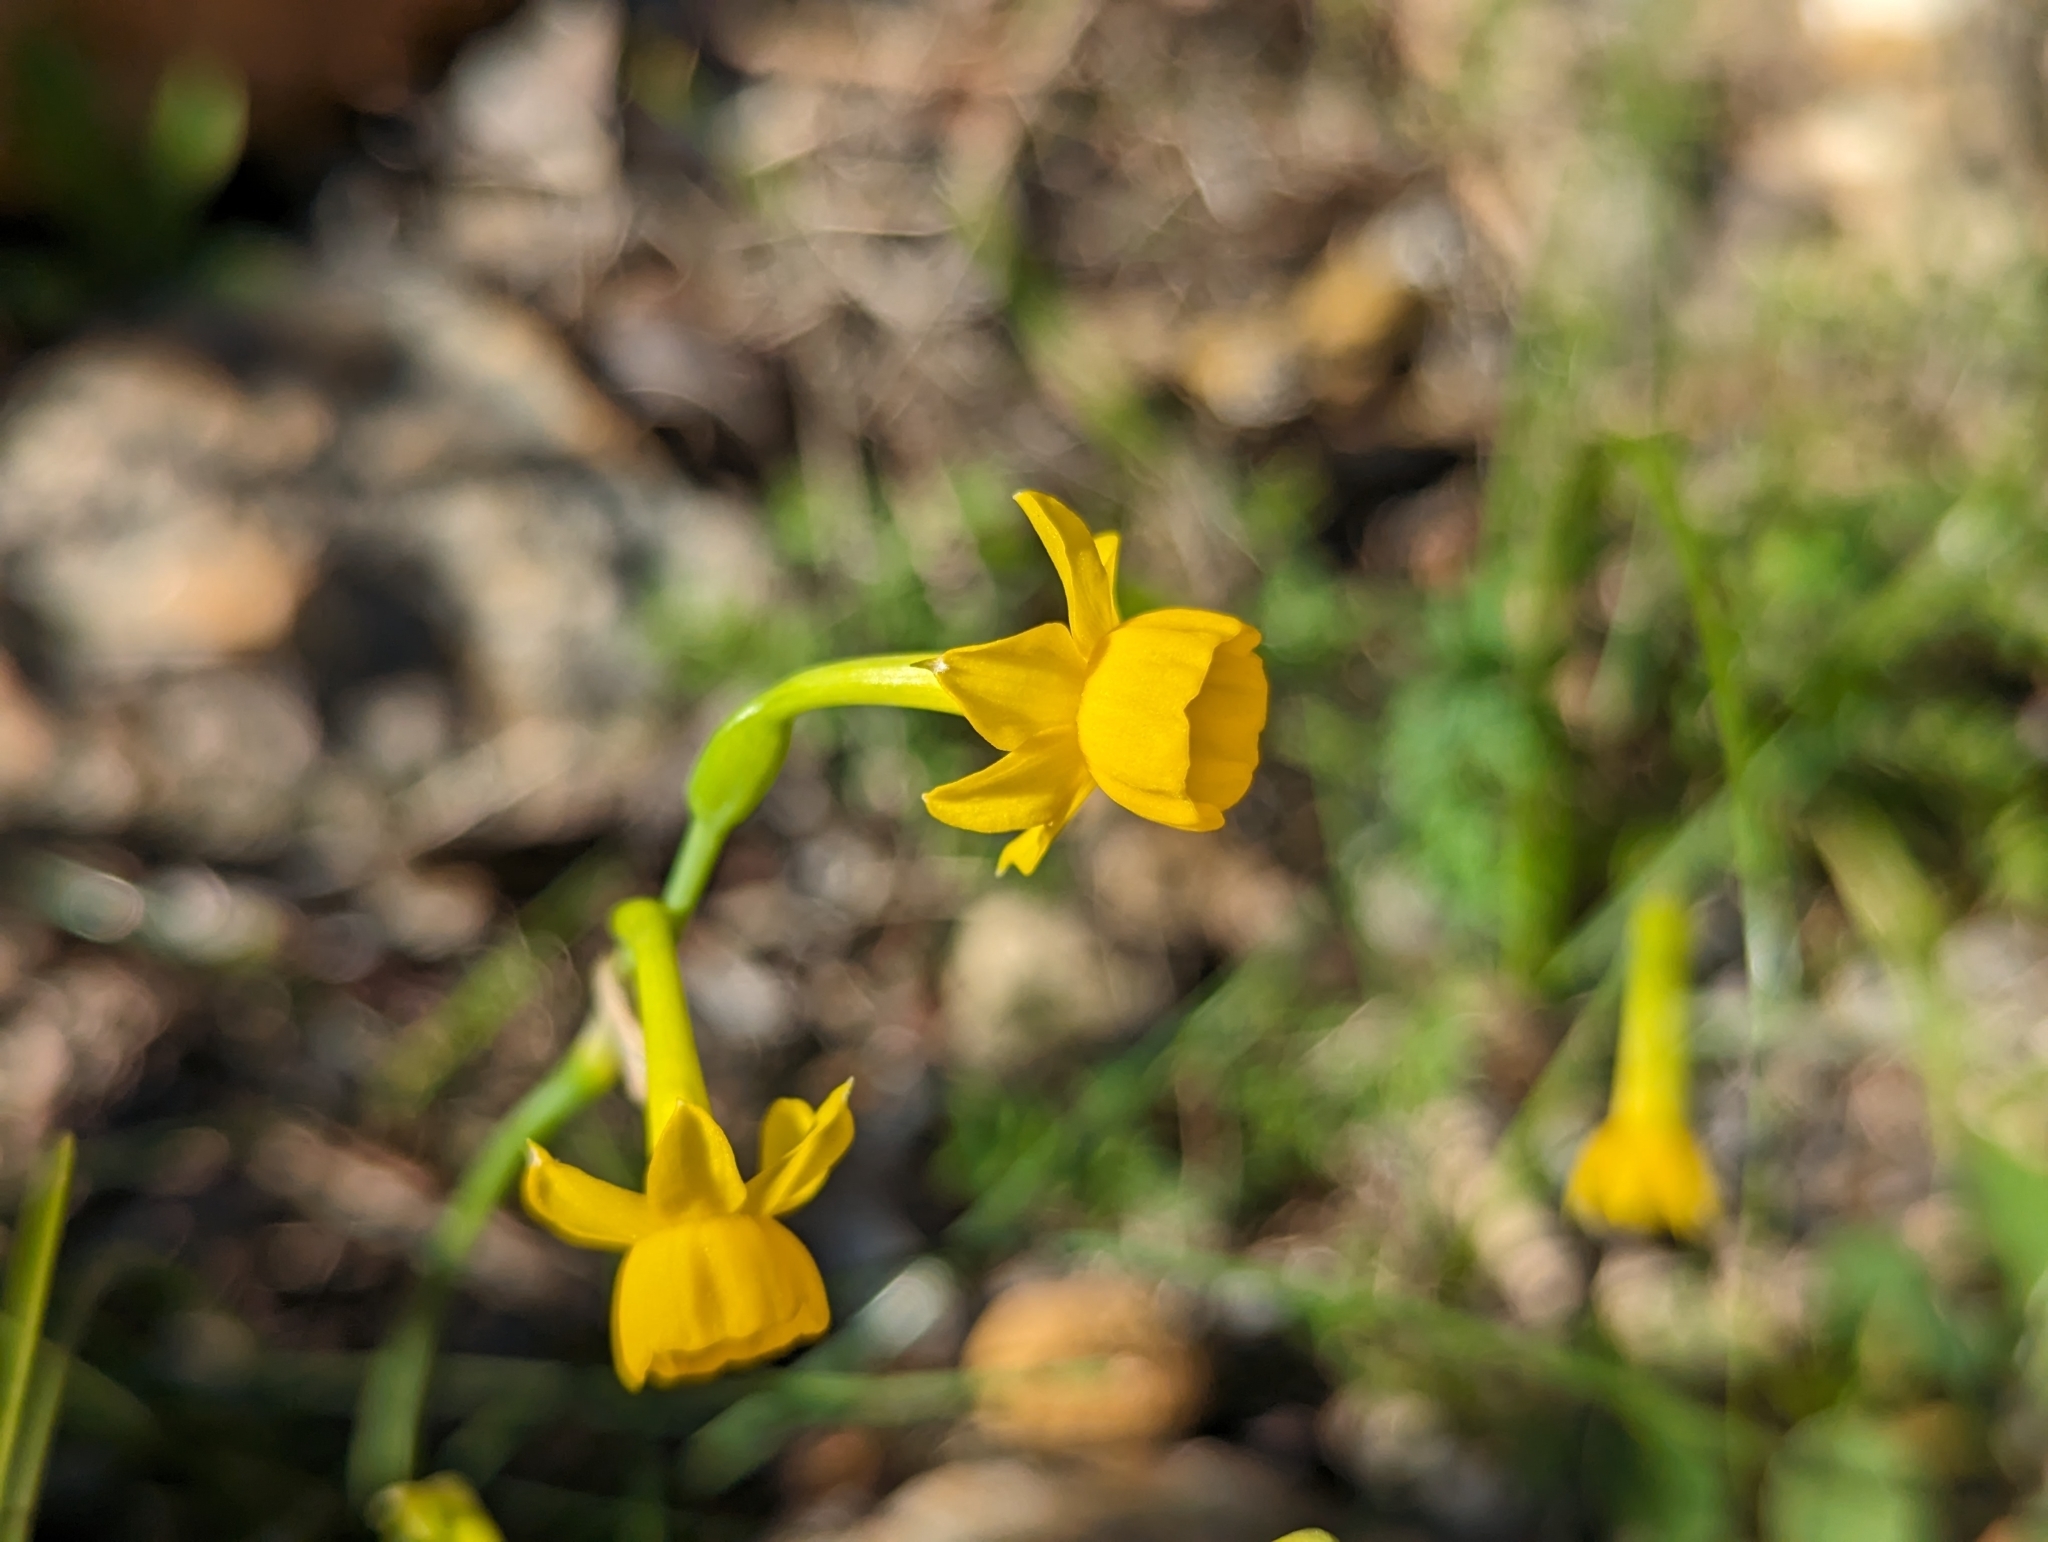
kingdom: Plantae
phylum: Tracheophyta
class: Liliopsida
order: Asparagales
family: Amaryllidaceae
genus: Narcissus
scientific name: Narcissus gaditanus
